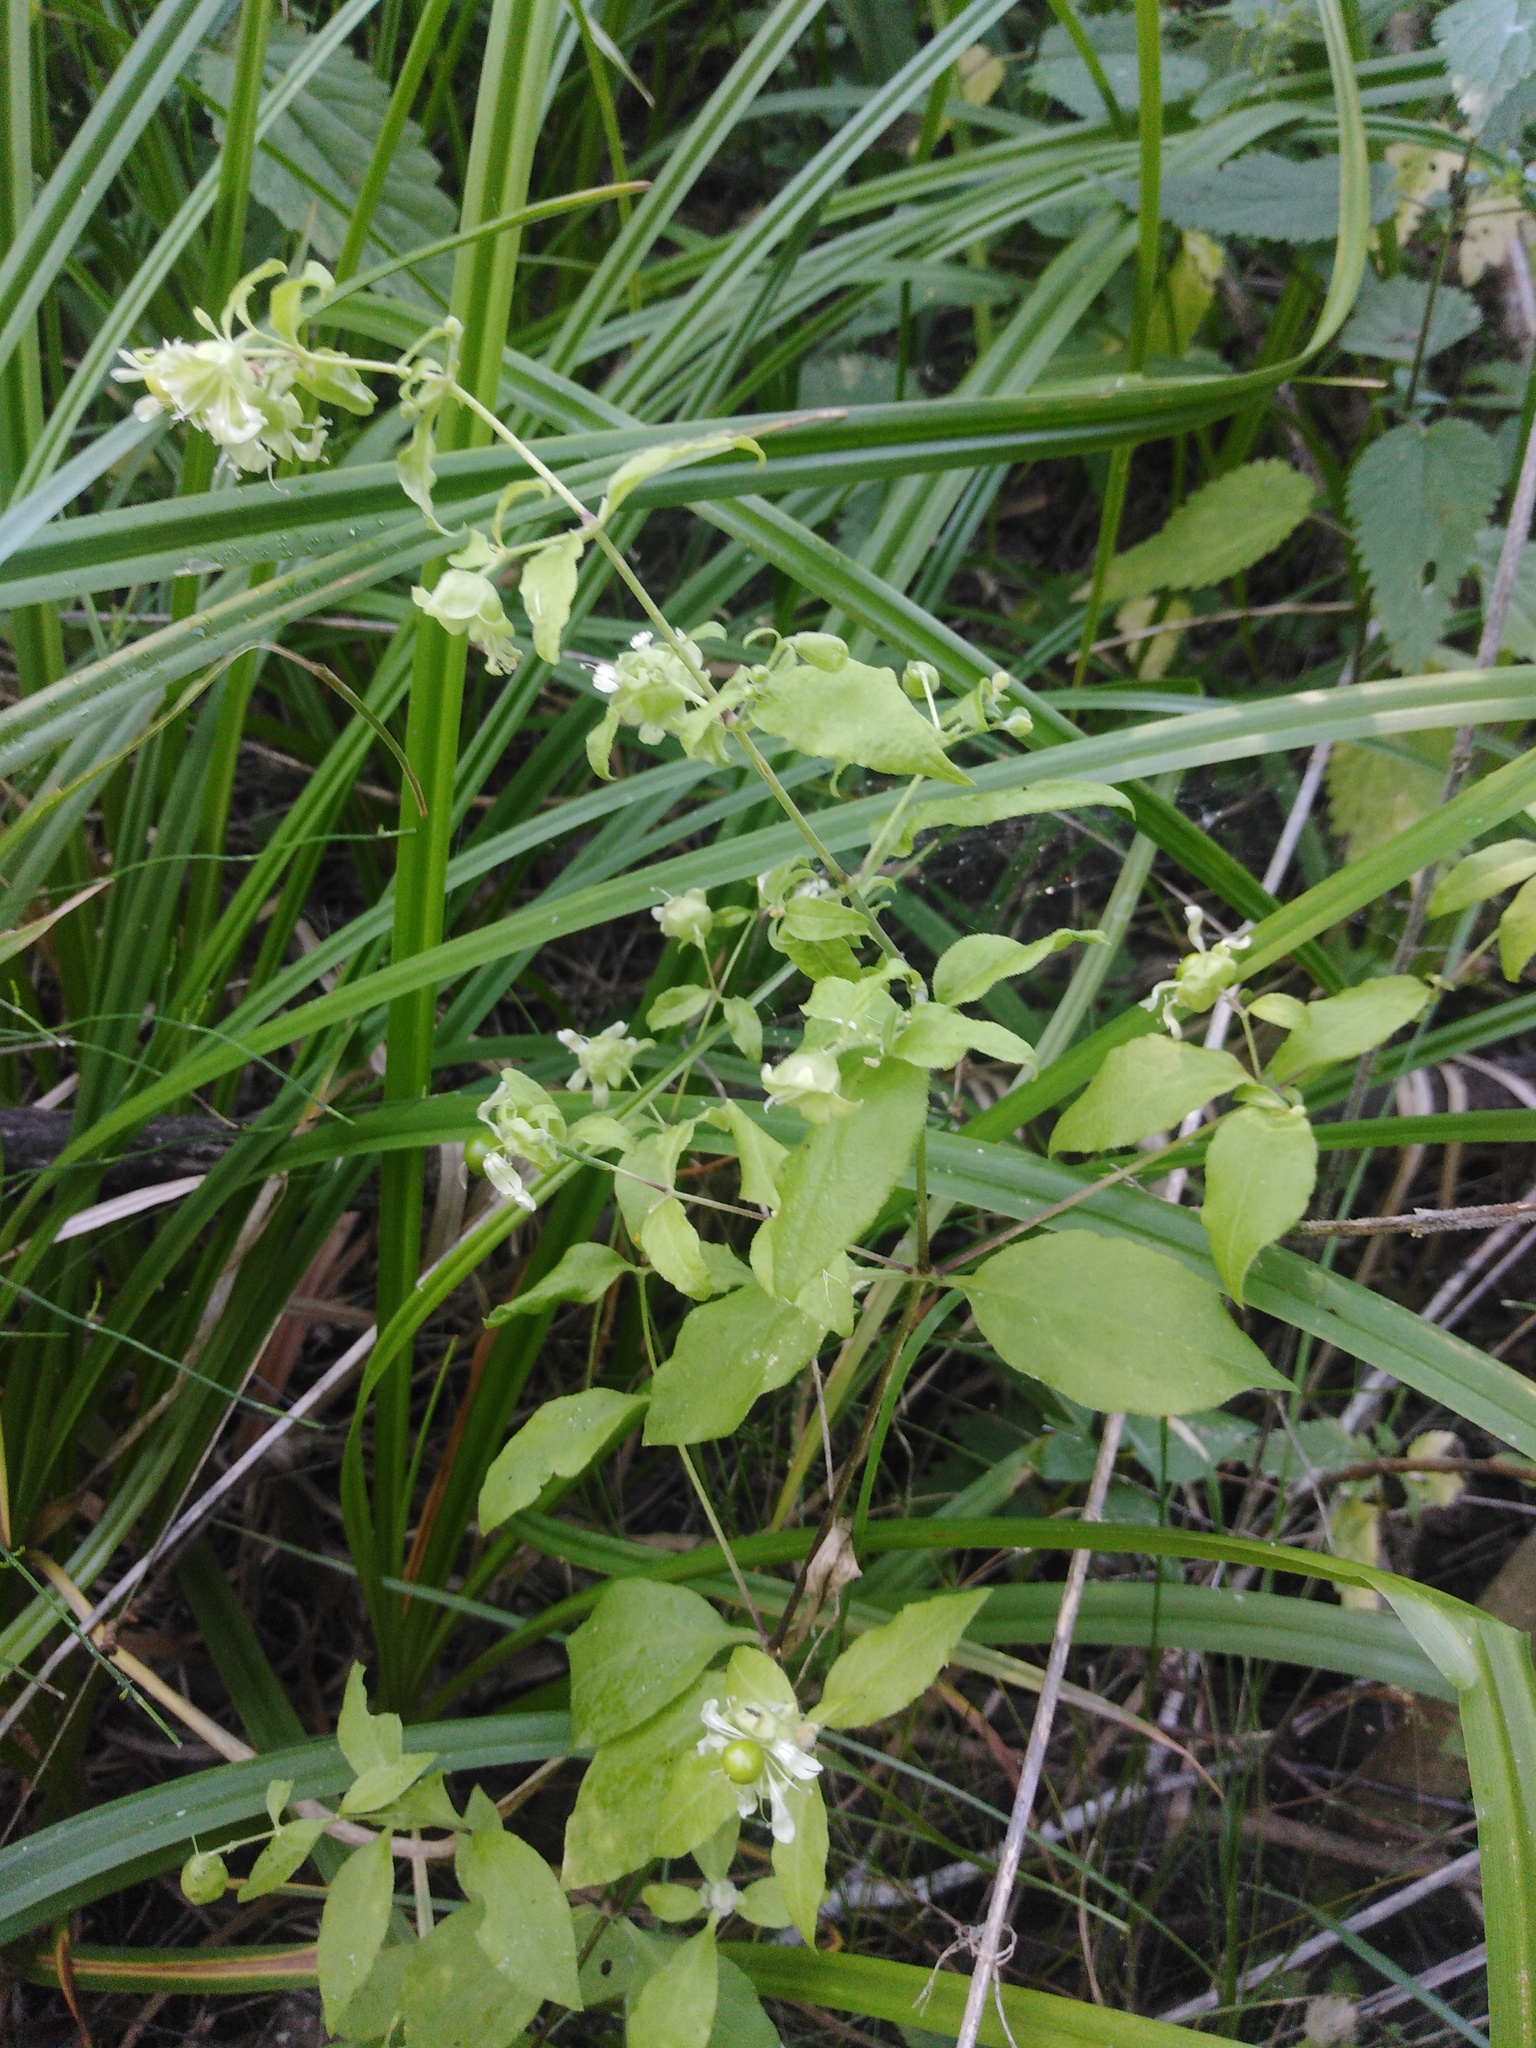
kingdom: Plantae
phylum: Tracheophyta
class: Magnoliopsida
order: Caryophyllales
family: Caryophyllaceae
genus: Silene
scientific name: Silene baccifera
